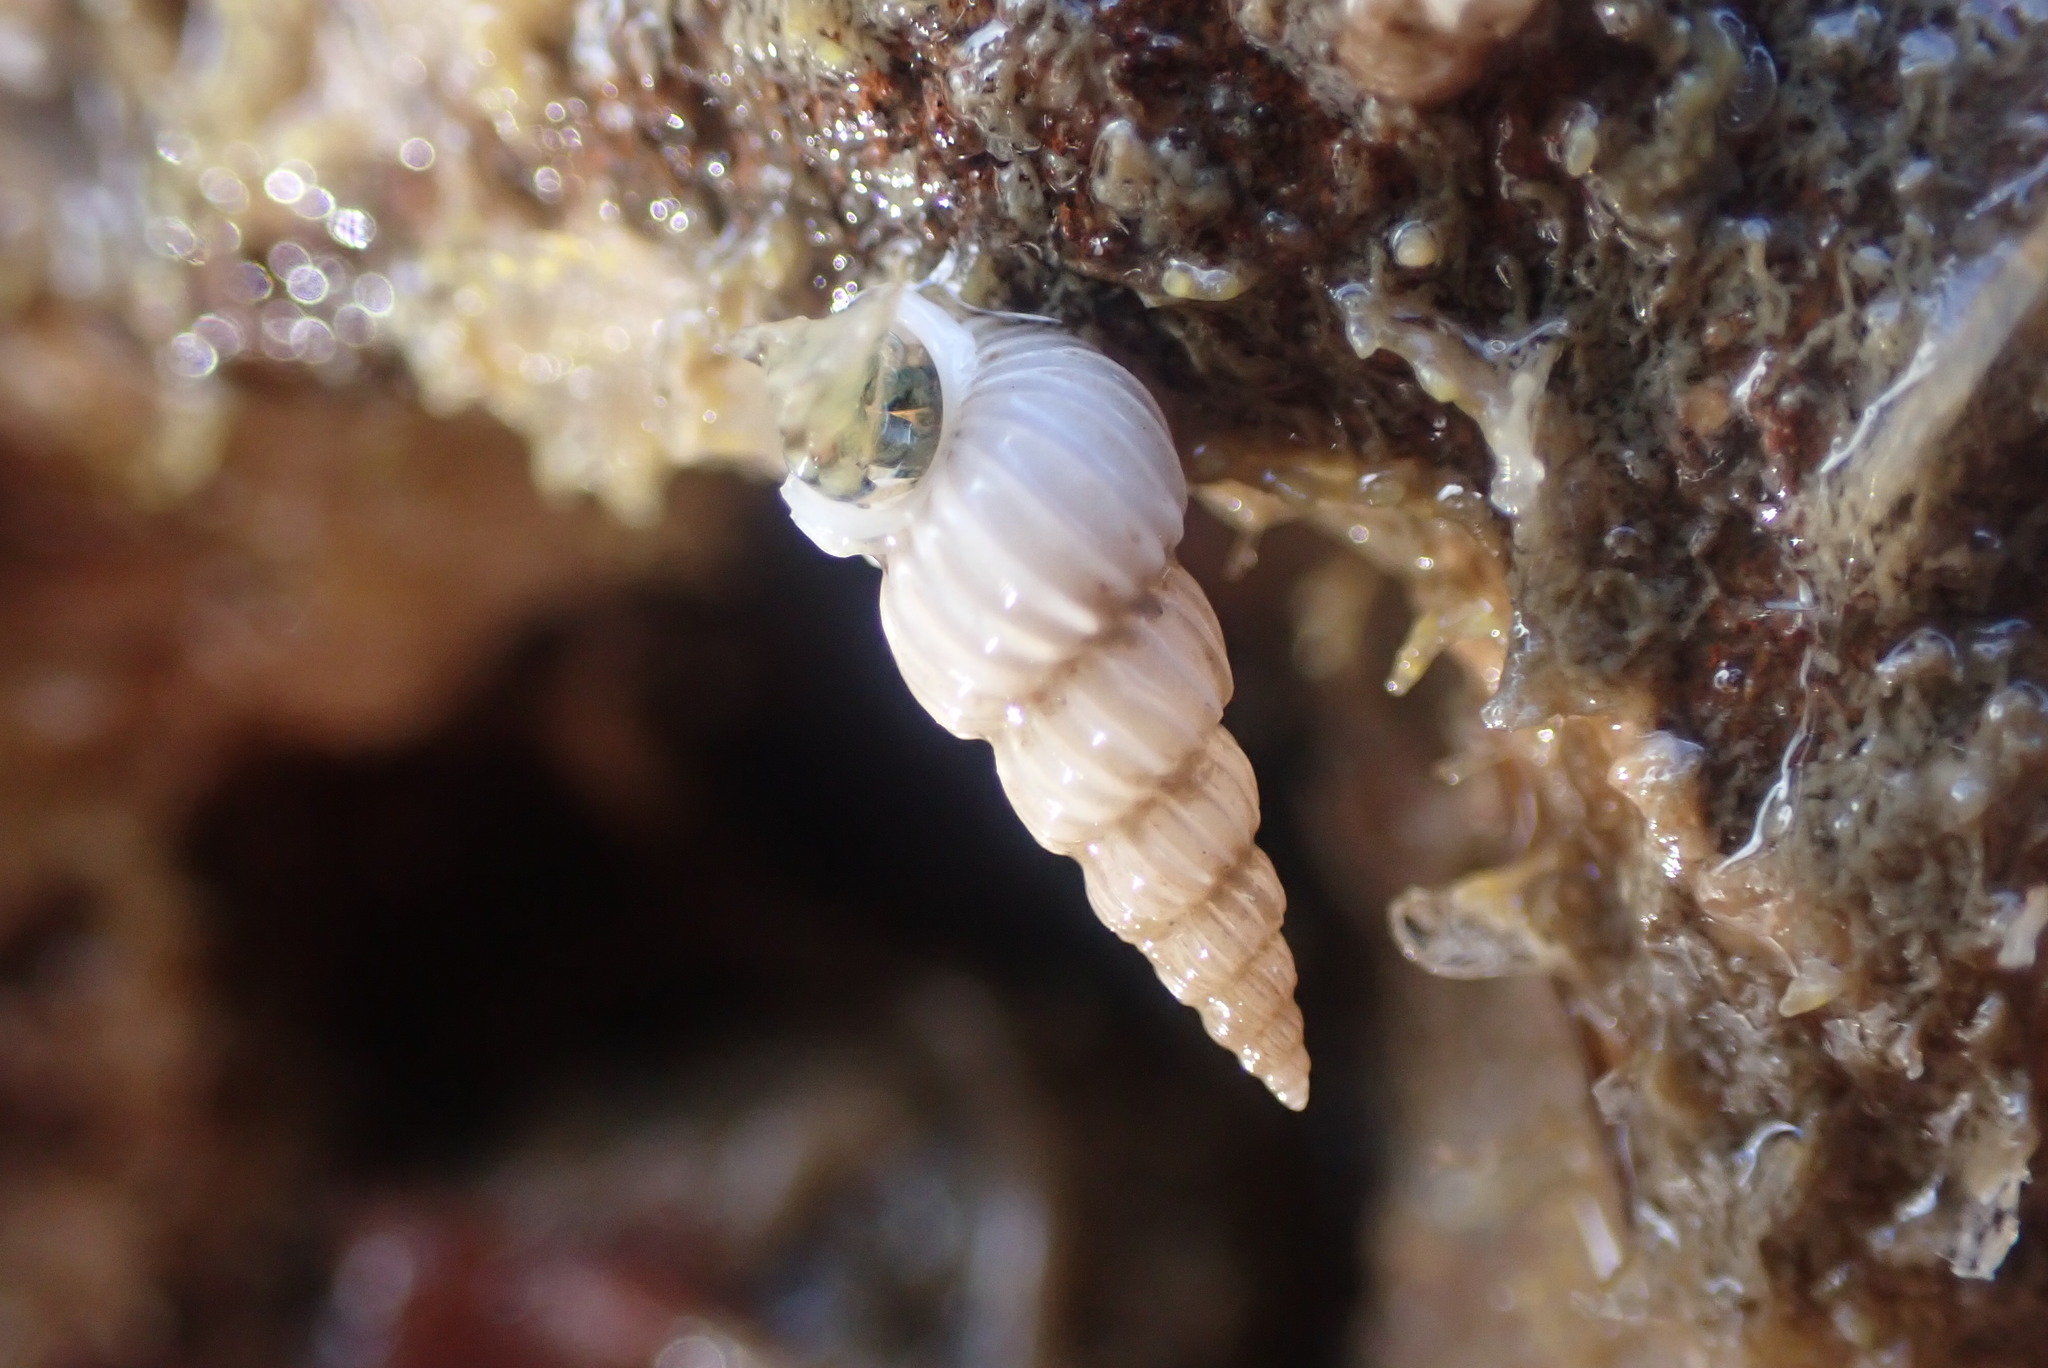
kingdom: Animalia
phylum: Mollusca
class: Gastropoda
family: Epitoniidae
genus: Epitonium
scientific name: Epitonium jukesianum
